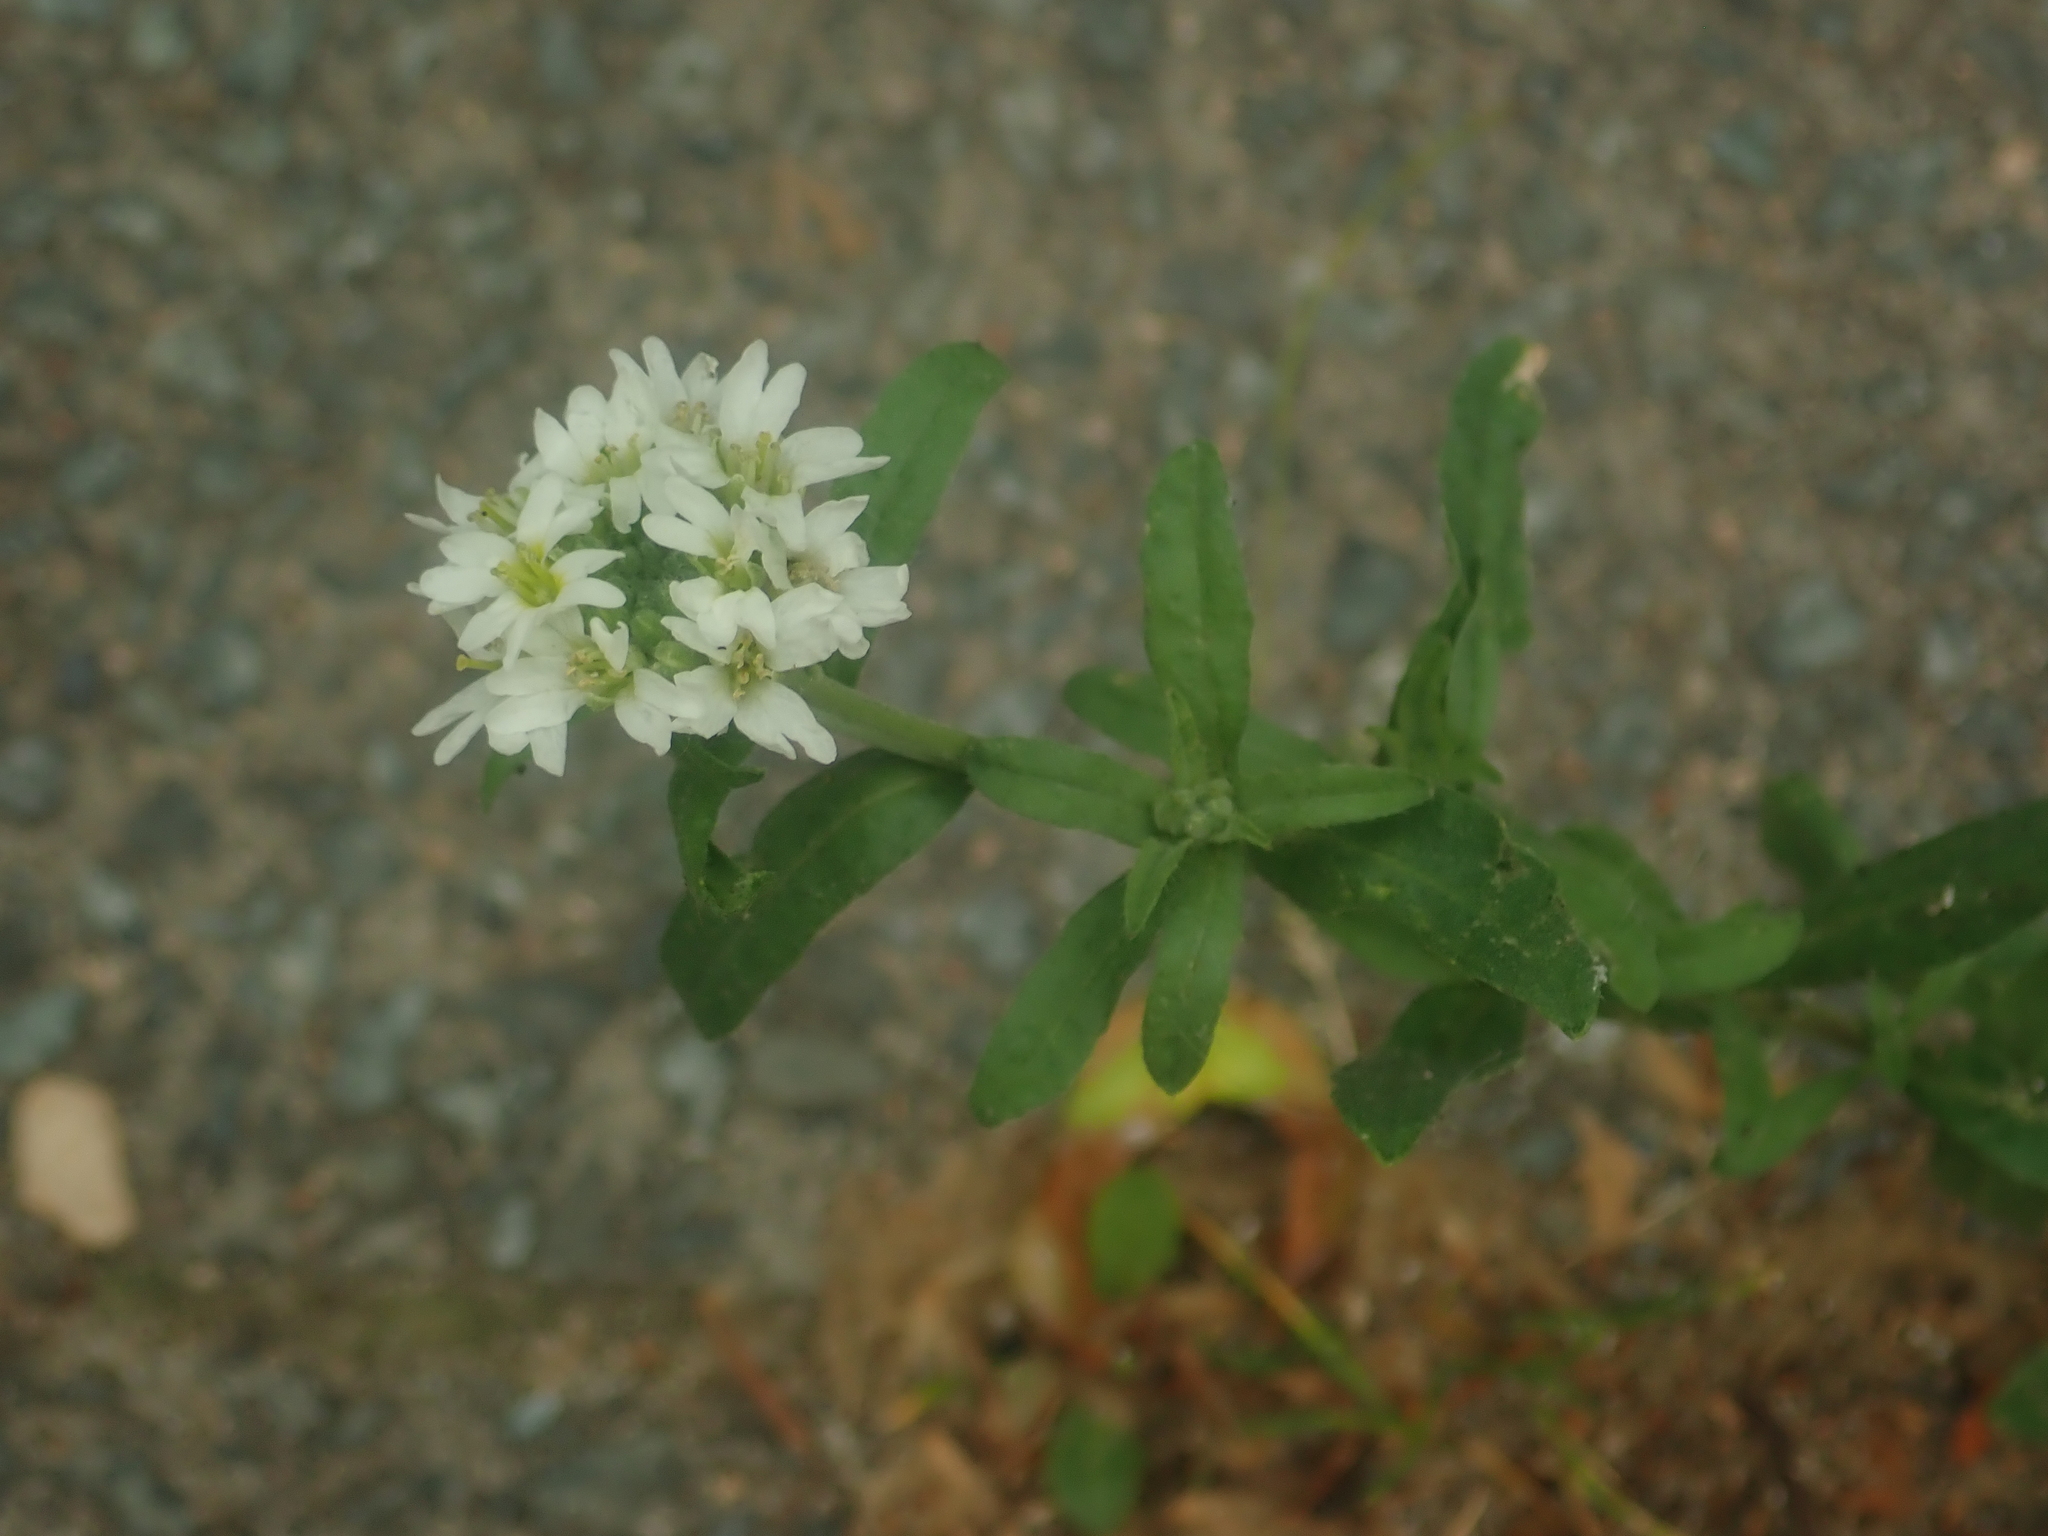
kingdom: Plantae
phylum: Tracheophyta
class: Magnoliopsida
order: Brassicales
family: Brassicaceae
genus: Berteroa
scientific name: Berteroa incana
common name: Hoary alison
